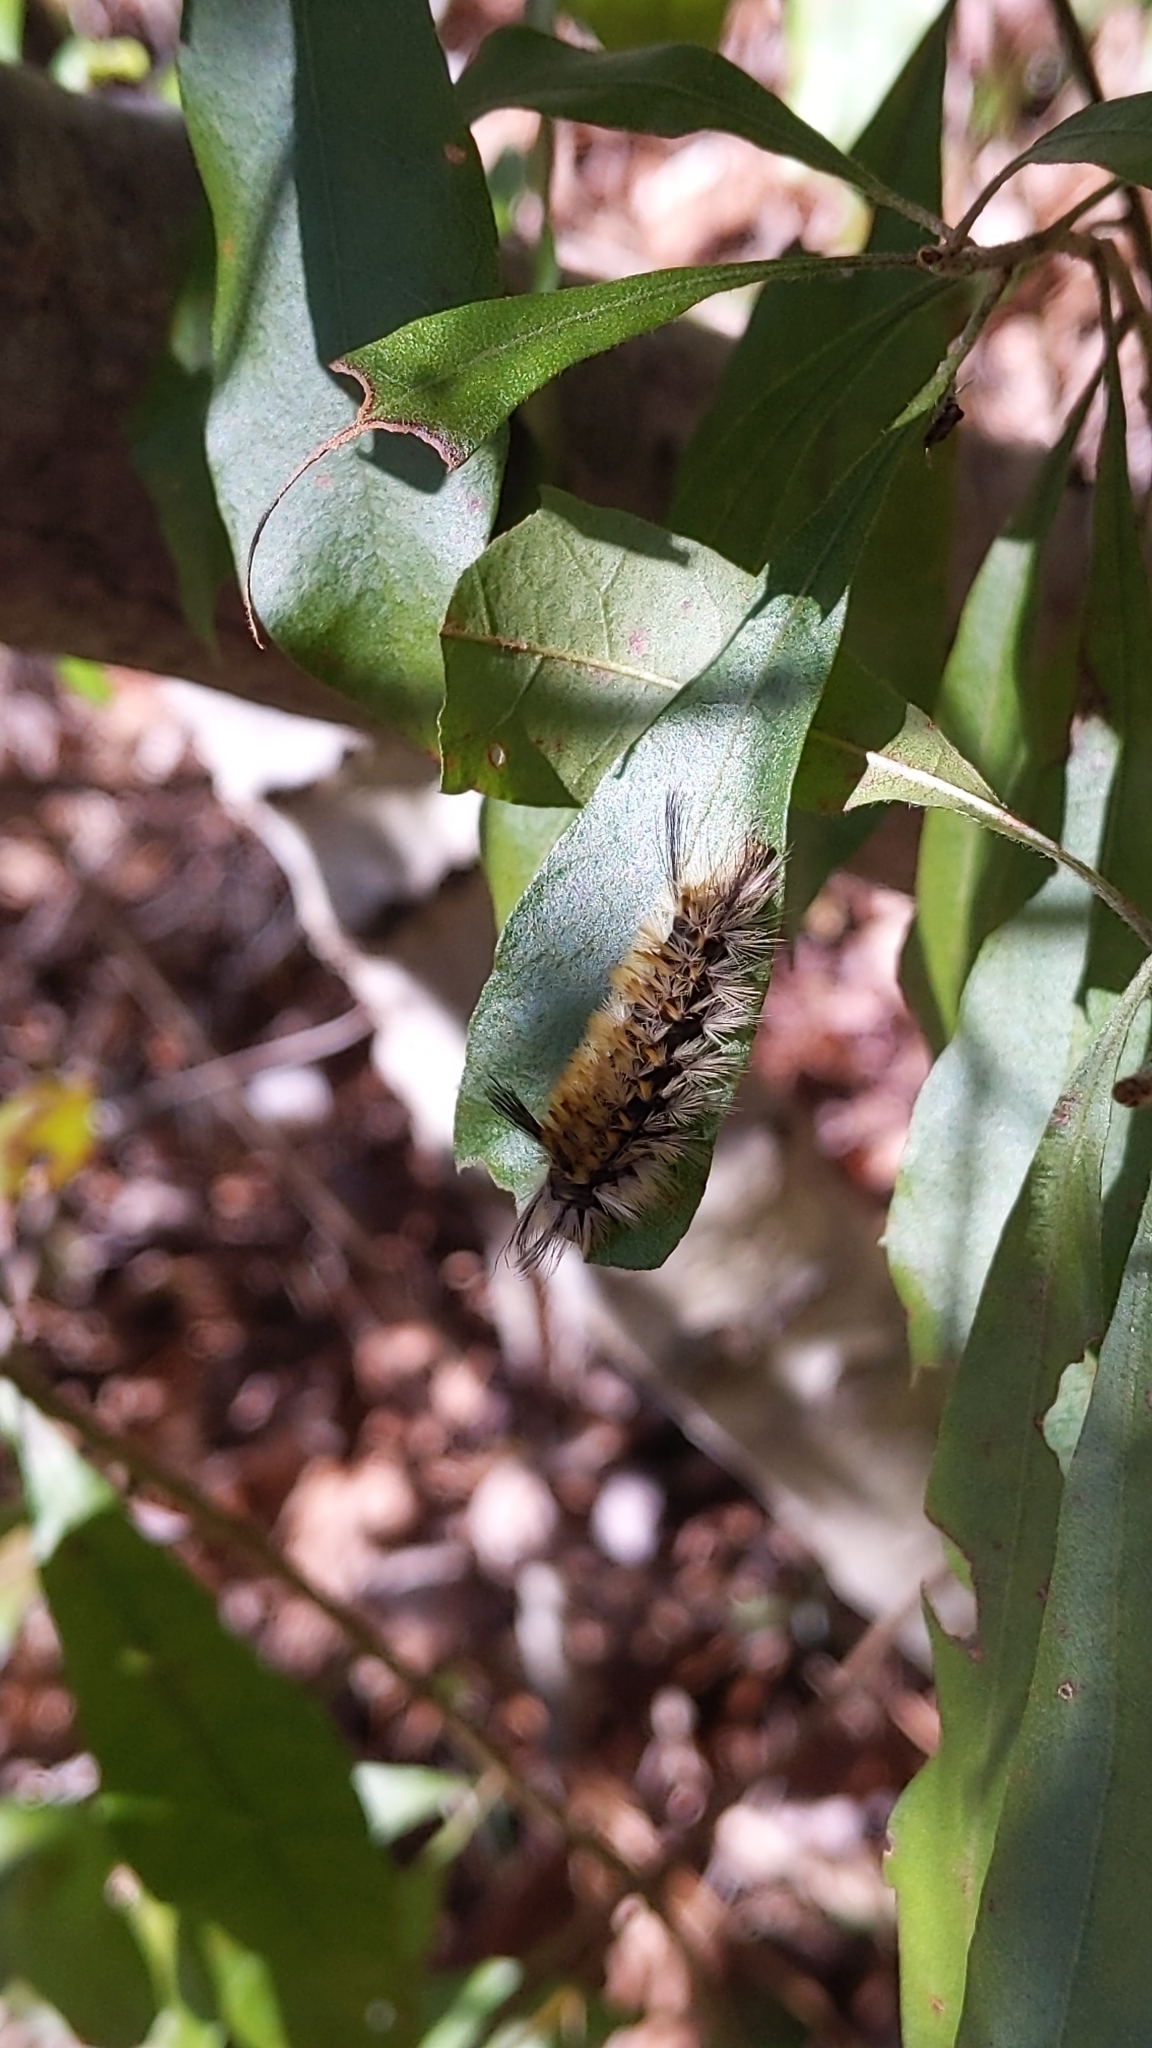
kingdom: Animalia
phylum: Arthropoda
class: Insecta
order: Lepidoptera
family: Erebidae
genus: Halysidota
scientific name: Halysidota tessellaris
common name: Banded tussock moth
